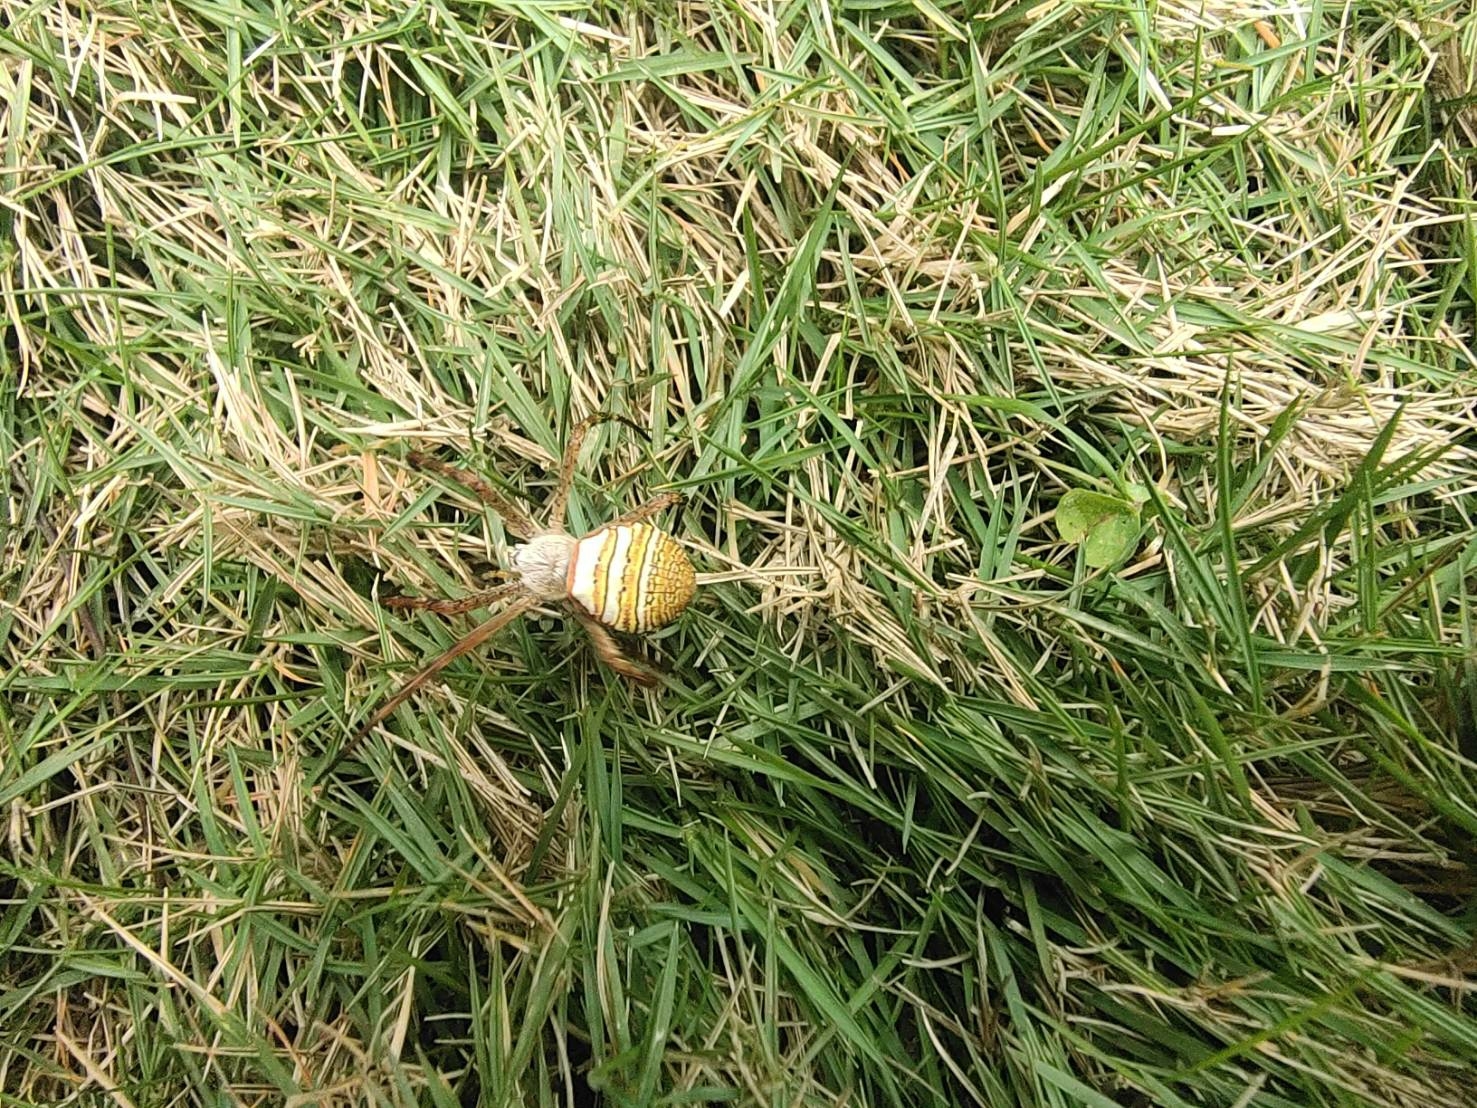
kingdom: Animalia
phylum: Arthropoda
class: Arachnida
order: Araneae
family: Araneidae
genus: Argiope
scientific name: Argiope aemula
